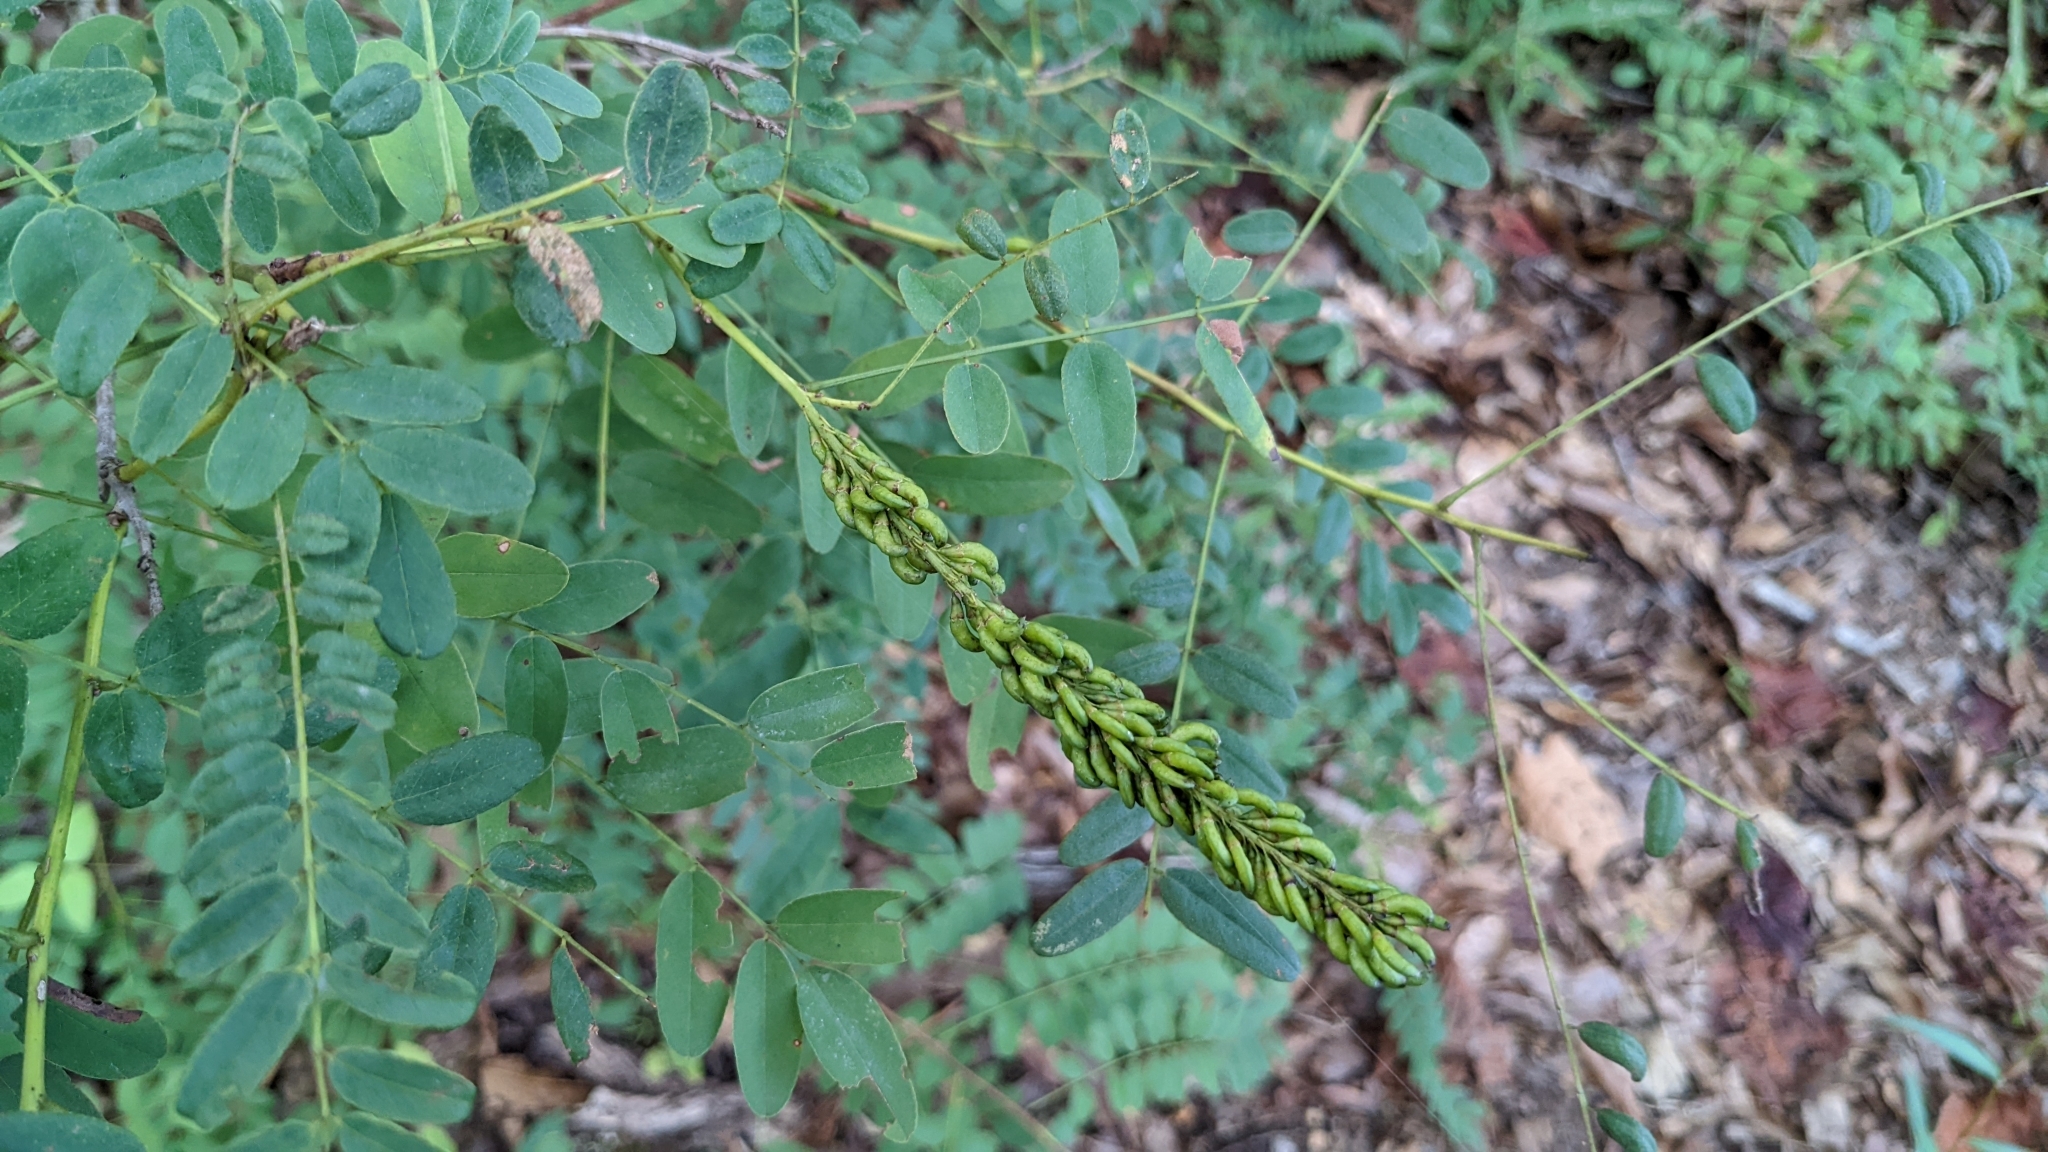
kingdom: Plantae
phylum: Tracheophyta
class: Magnoliopsida
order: Fabales
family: Fabaceae
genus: Amorpha
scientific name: Amorpha fruticosa
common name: False indigo
